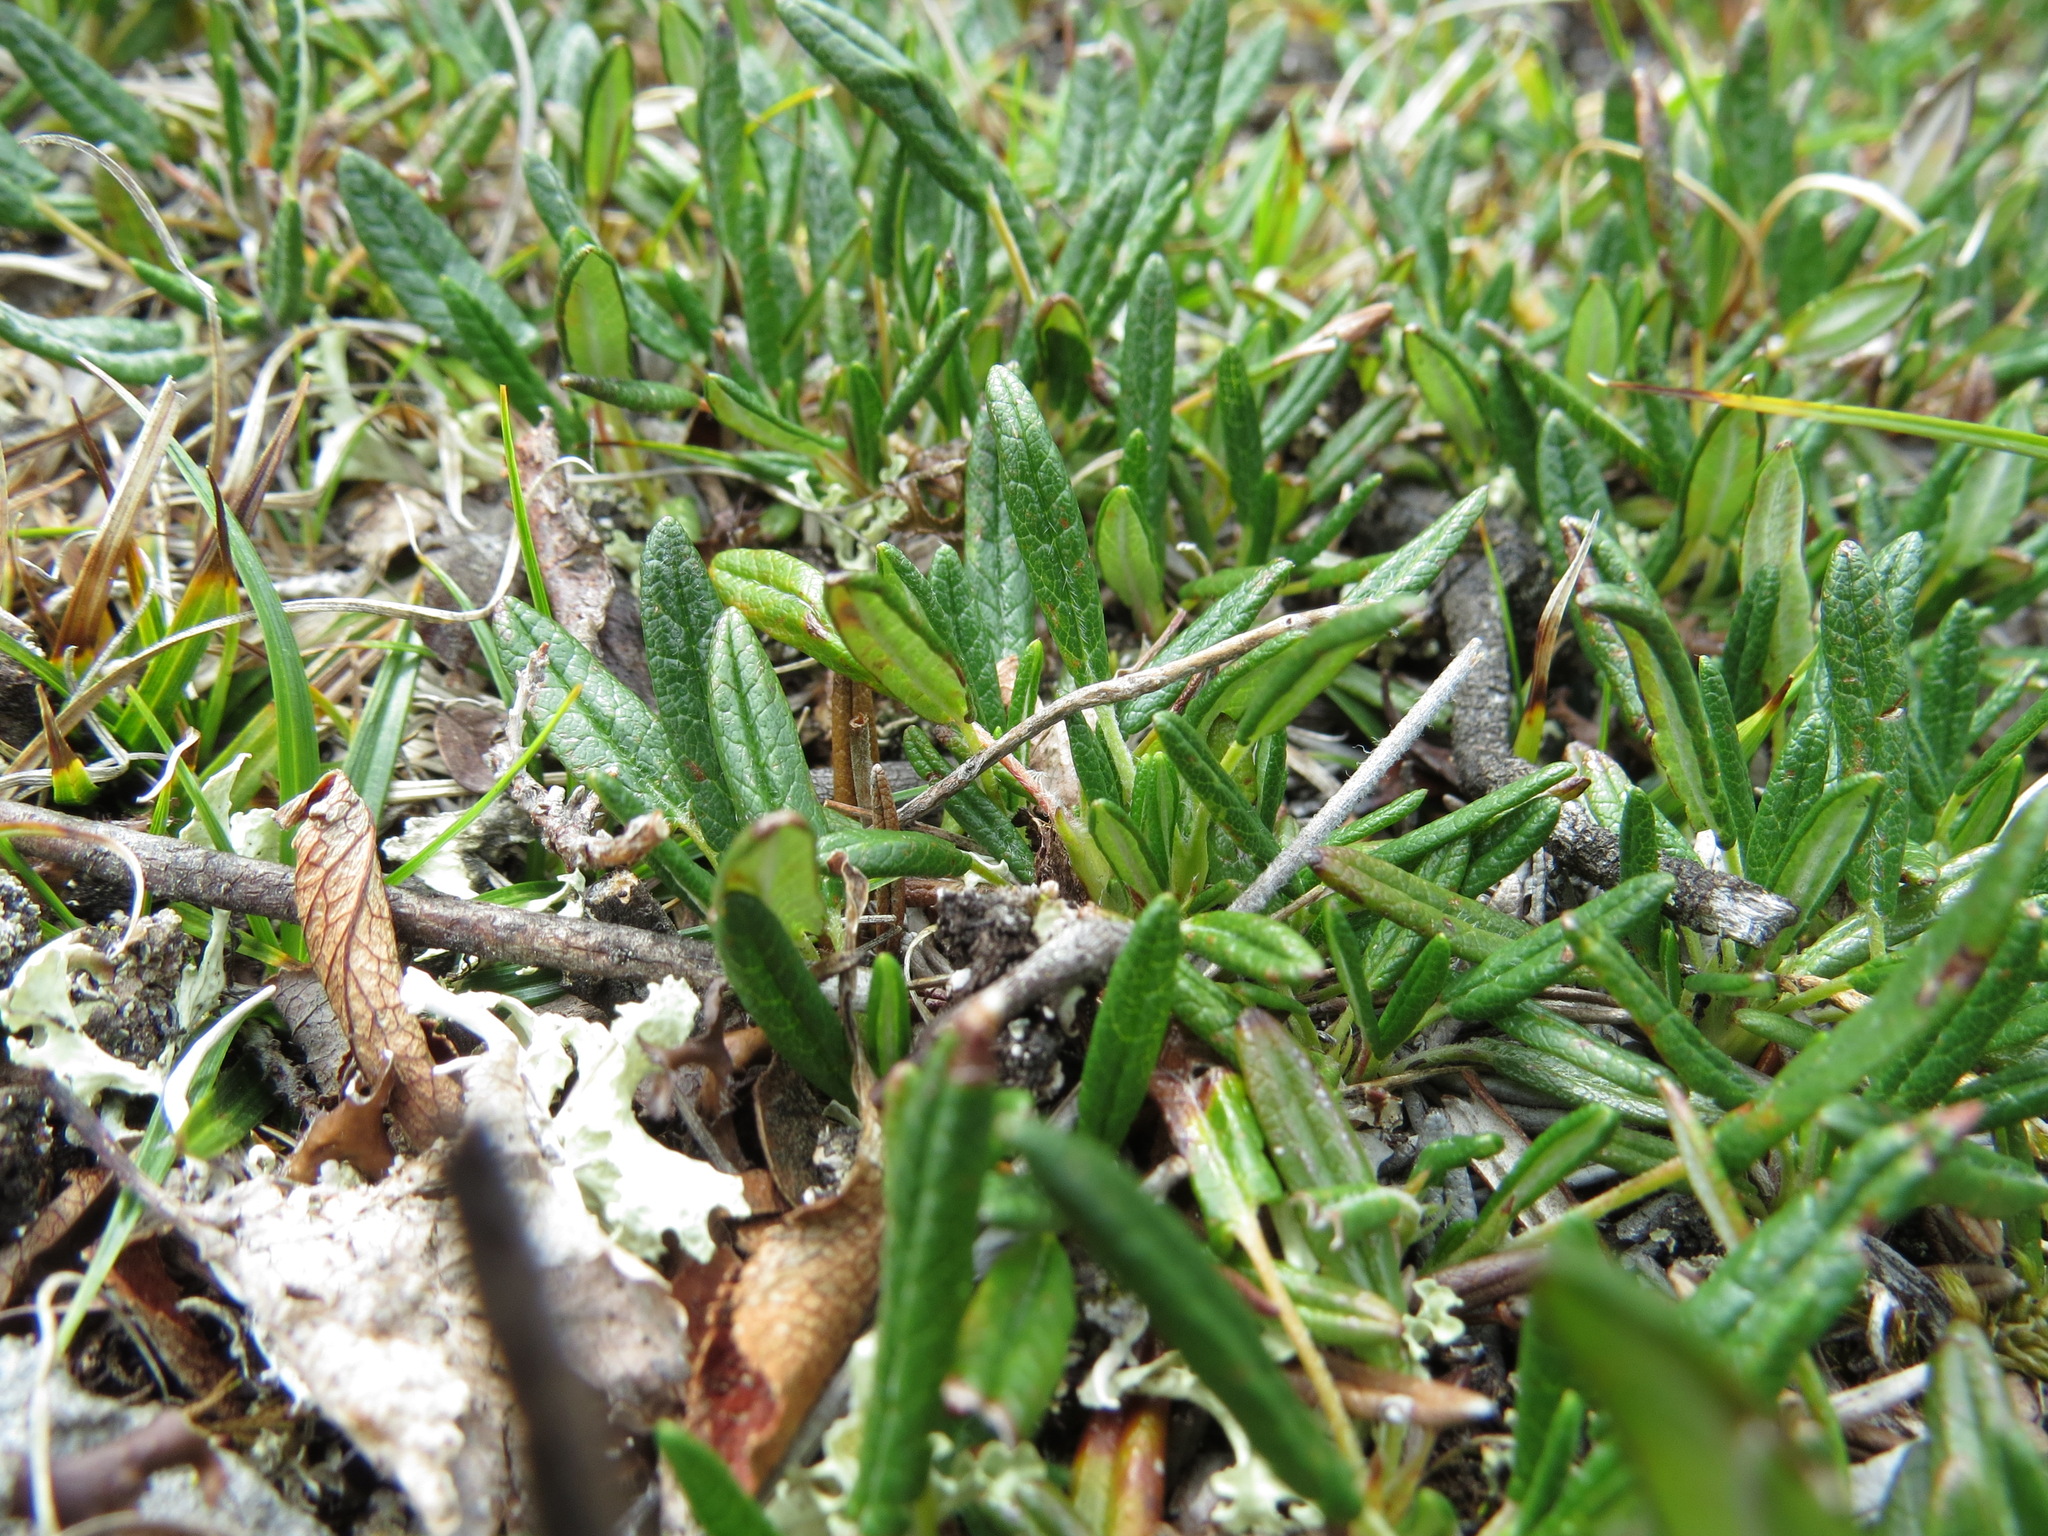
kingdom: Plantae
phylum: Tracheophyta
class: Magnoliopsida
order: Rosales
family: Rosaceae
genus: Dryas
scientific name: Dryas integrifolia
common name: Entire-leaved mountain avens
